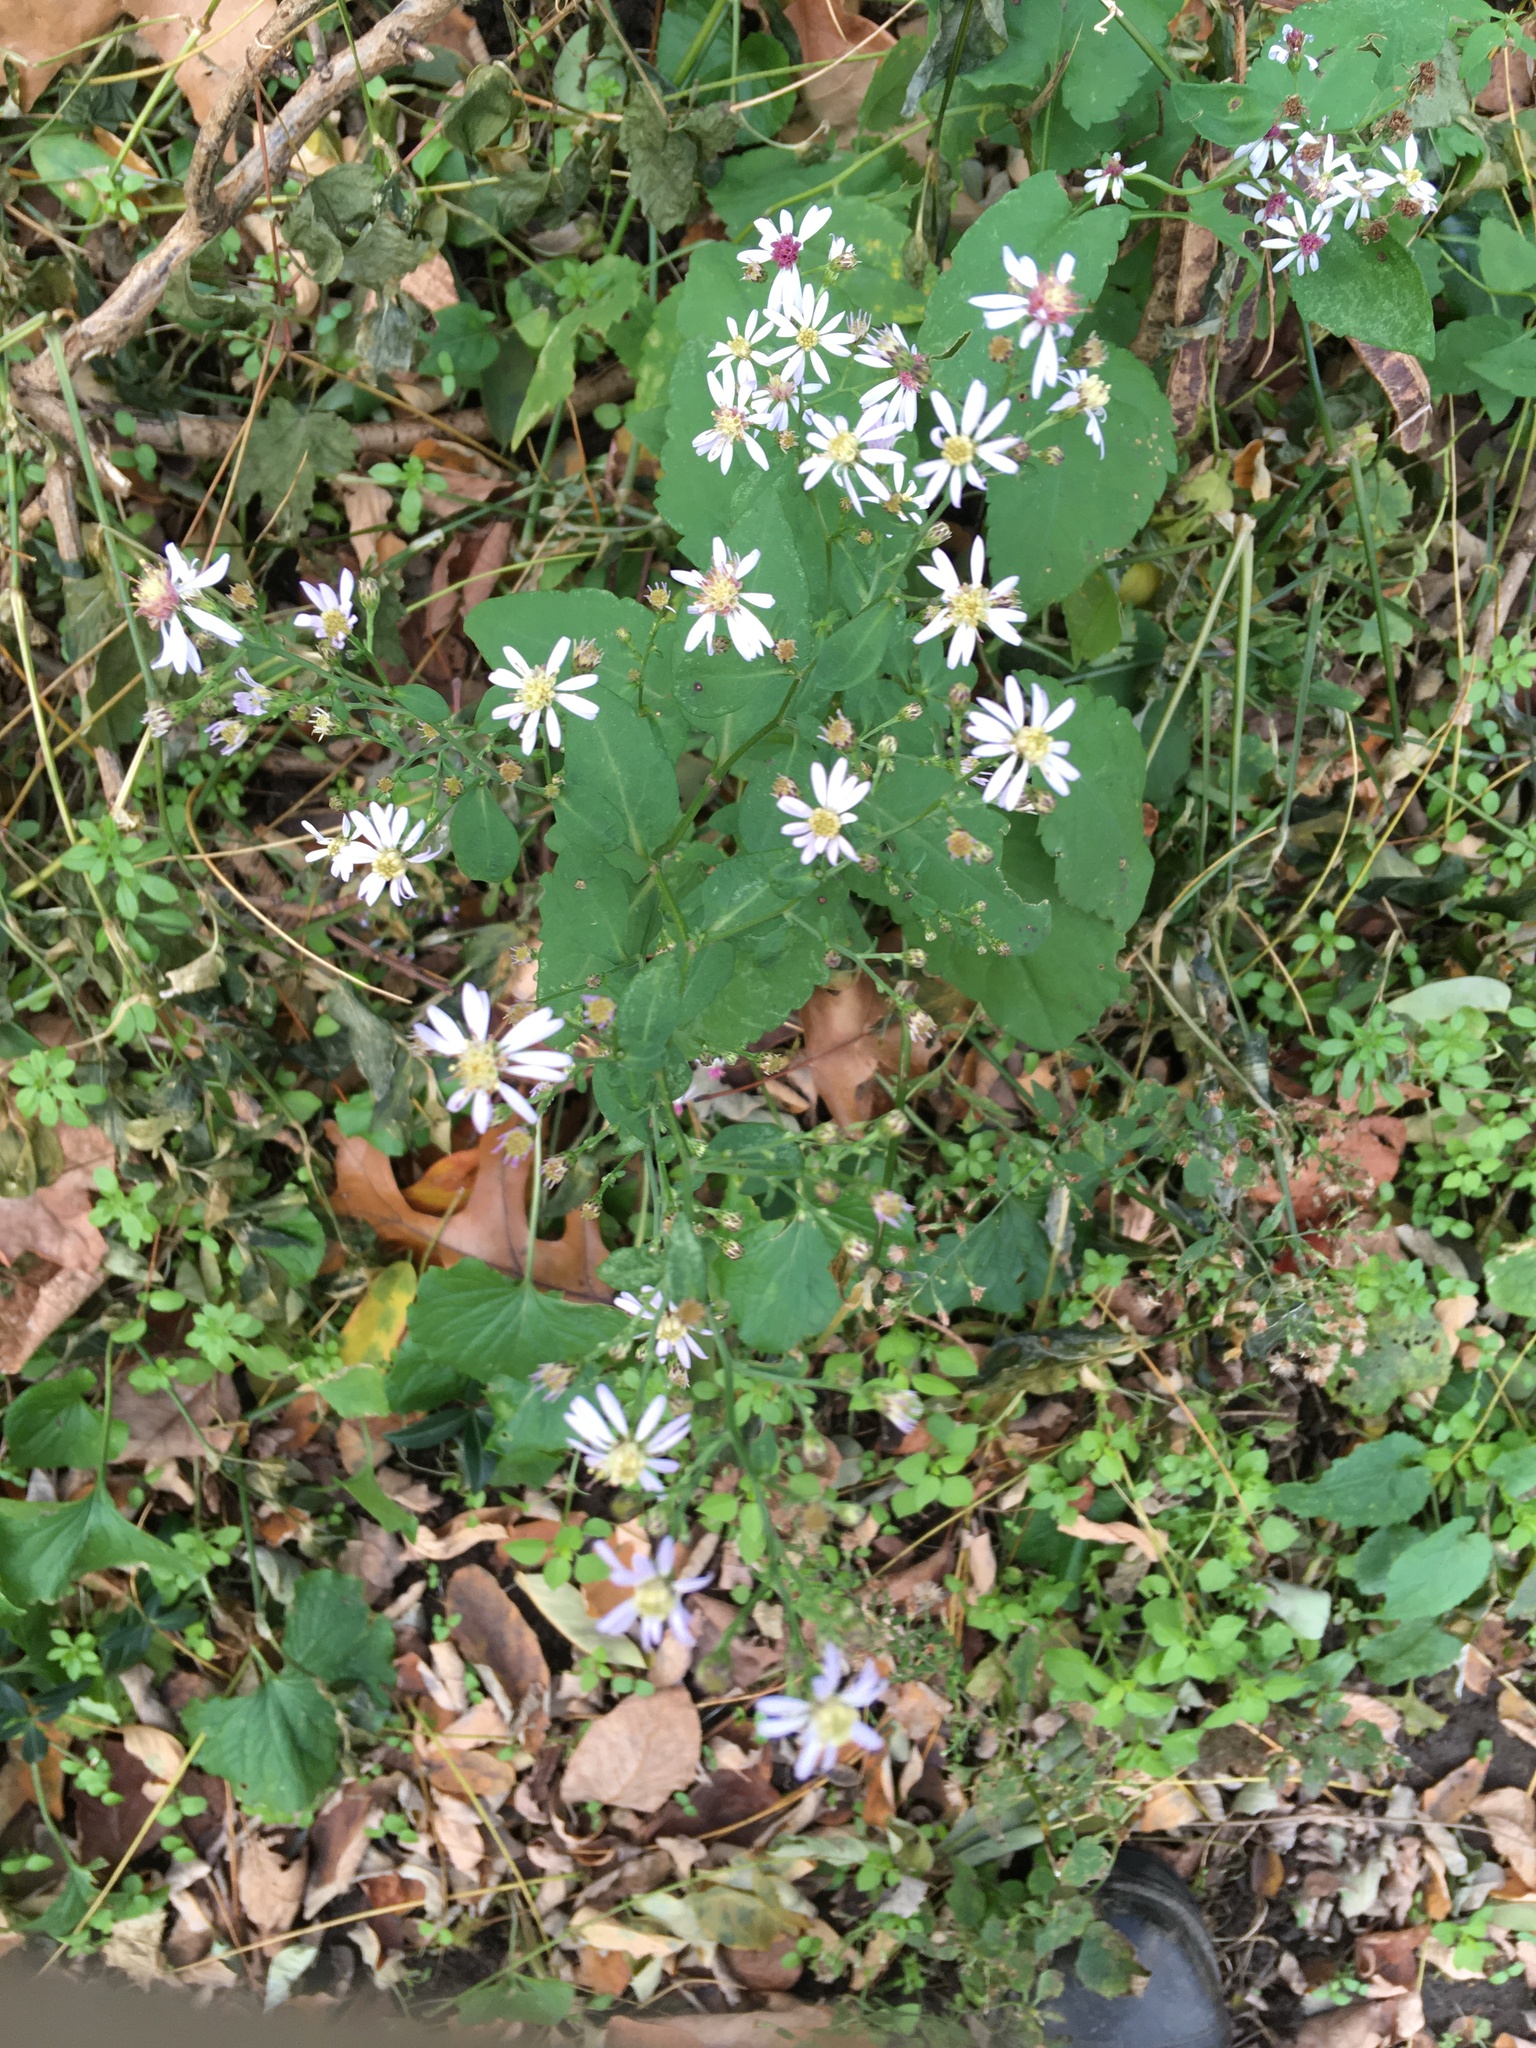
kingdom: Plantae
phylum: Tracheophyta
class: Magnoliopsida
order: Asterales
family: Asteraceae
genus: Symphyotrichum
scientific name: Symphyotrichum cordifolium
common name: Beeweed
